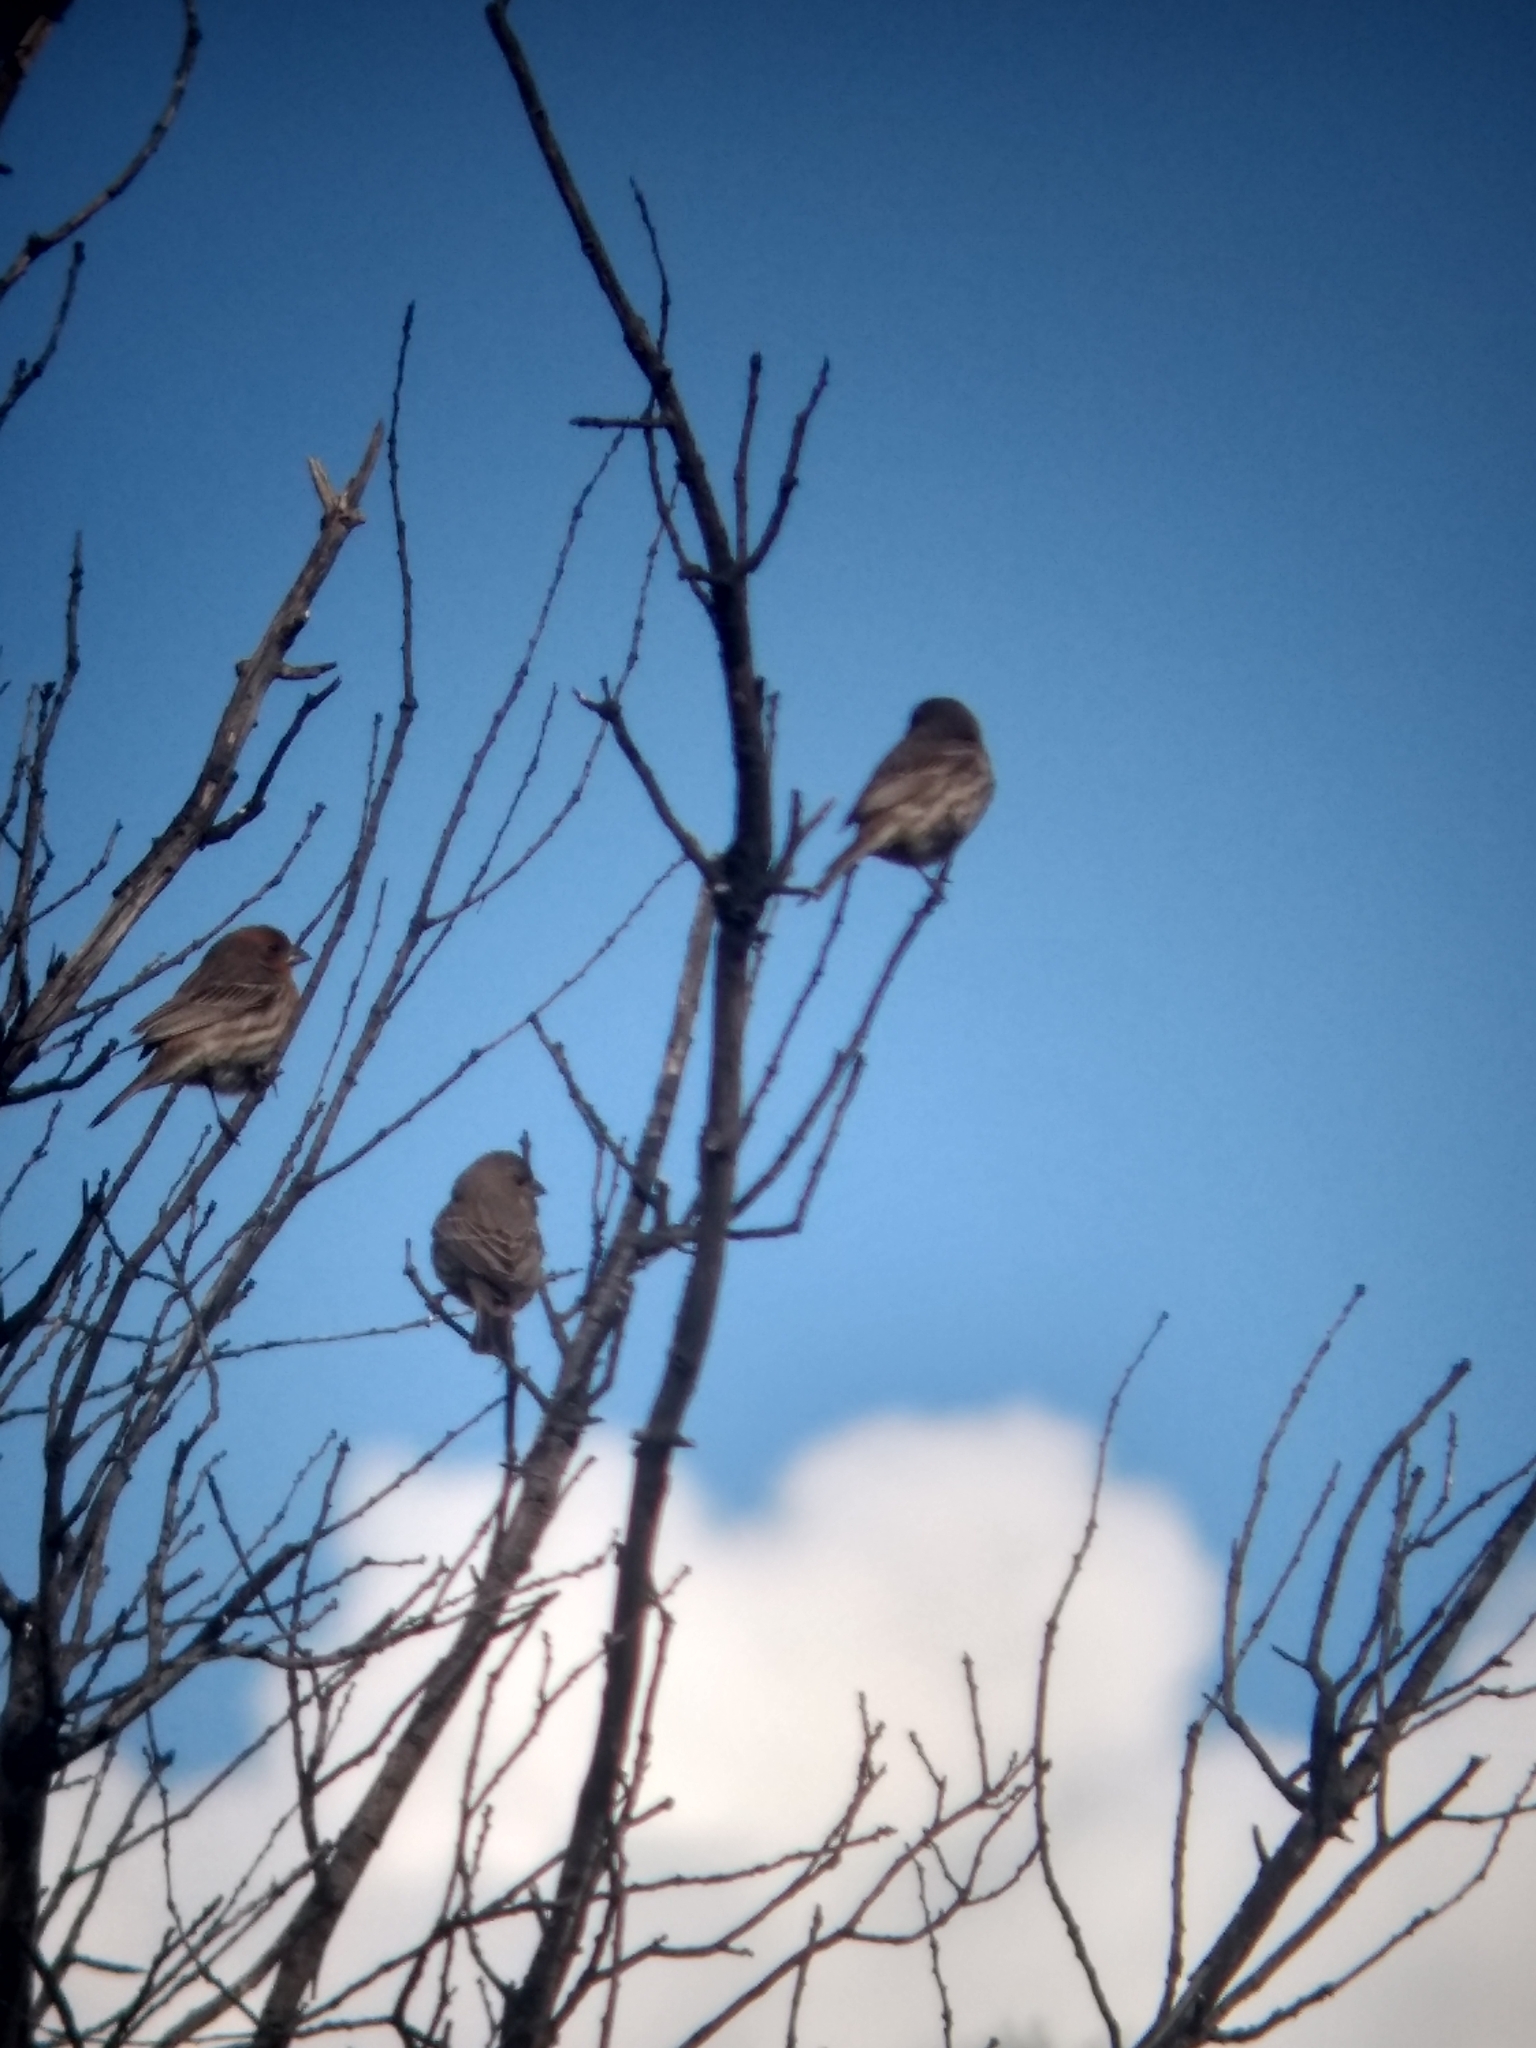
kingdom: Animalia
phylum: Chordata
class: Aves
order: Passeriformes
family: Fringillidae
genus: Haemorhous
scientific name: Haemorhous mexicanus
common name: House finch
